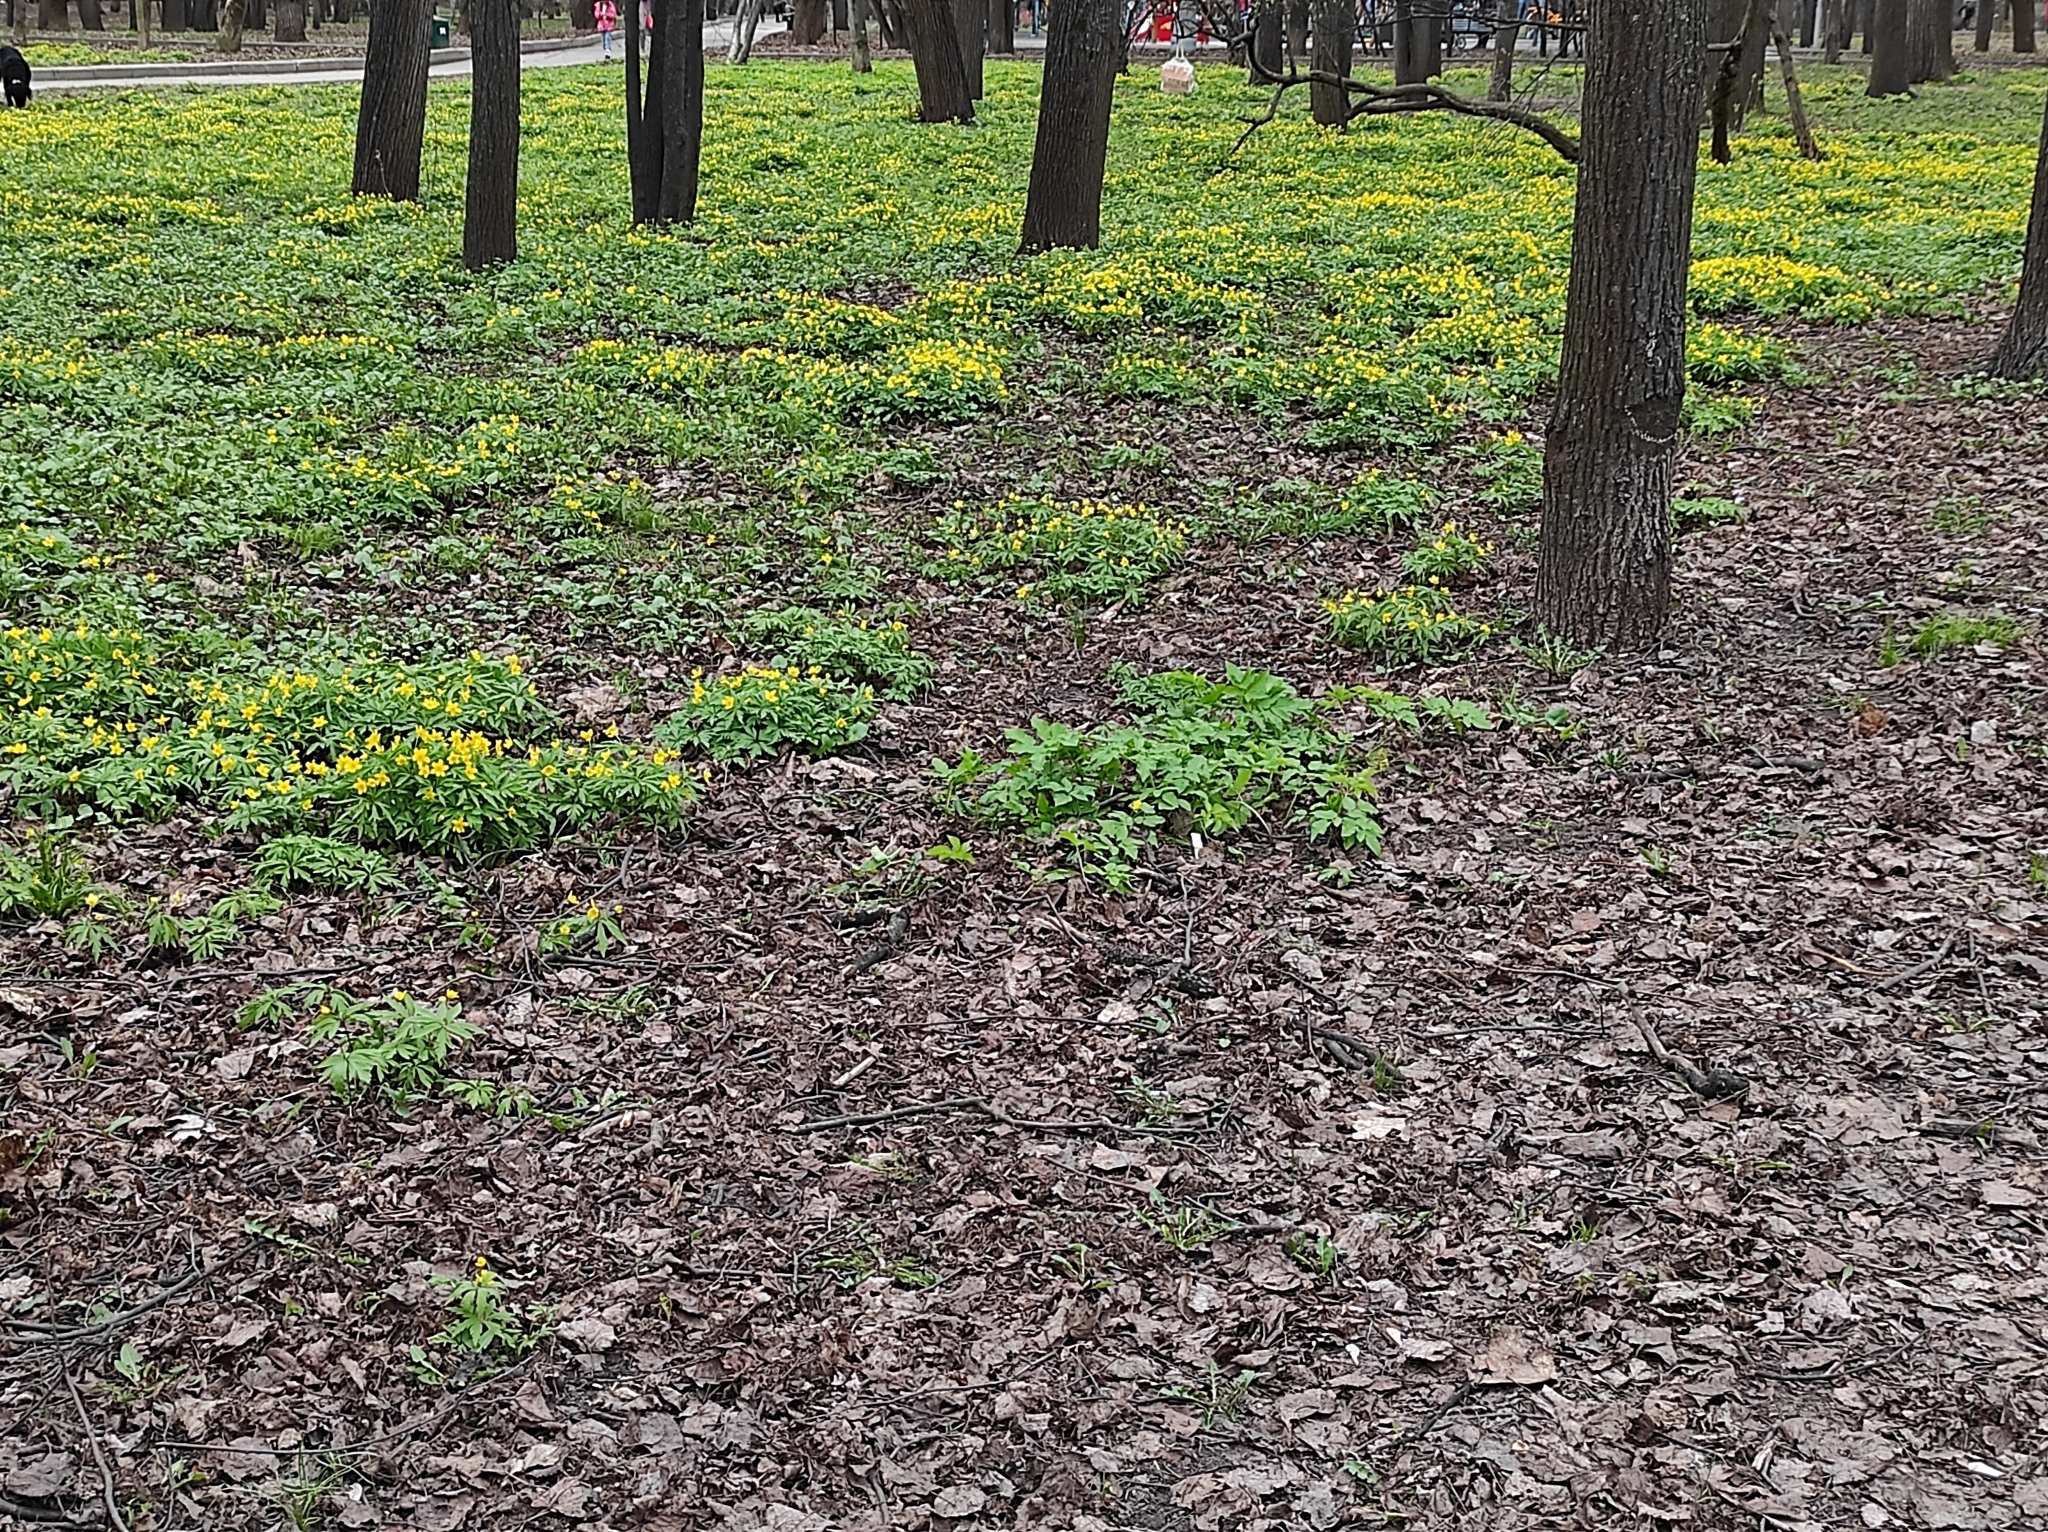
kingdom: Plantae
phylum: Tracheophyta
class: Magnoliopsida
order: Ranunculales
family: Ranunculaceae
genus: Anemone
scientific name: Anemone ranunculoides
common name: Yellow anemone
